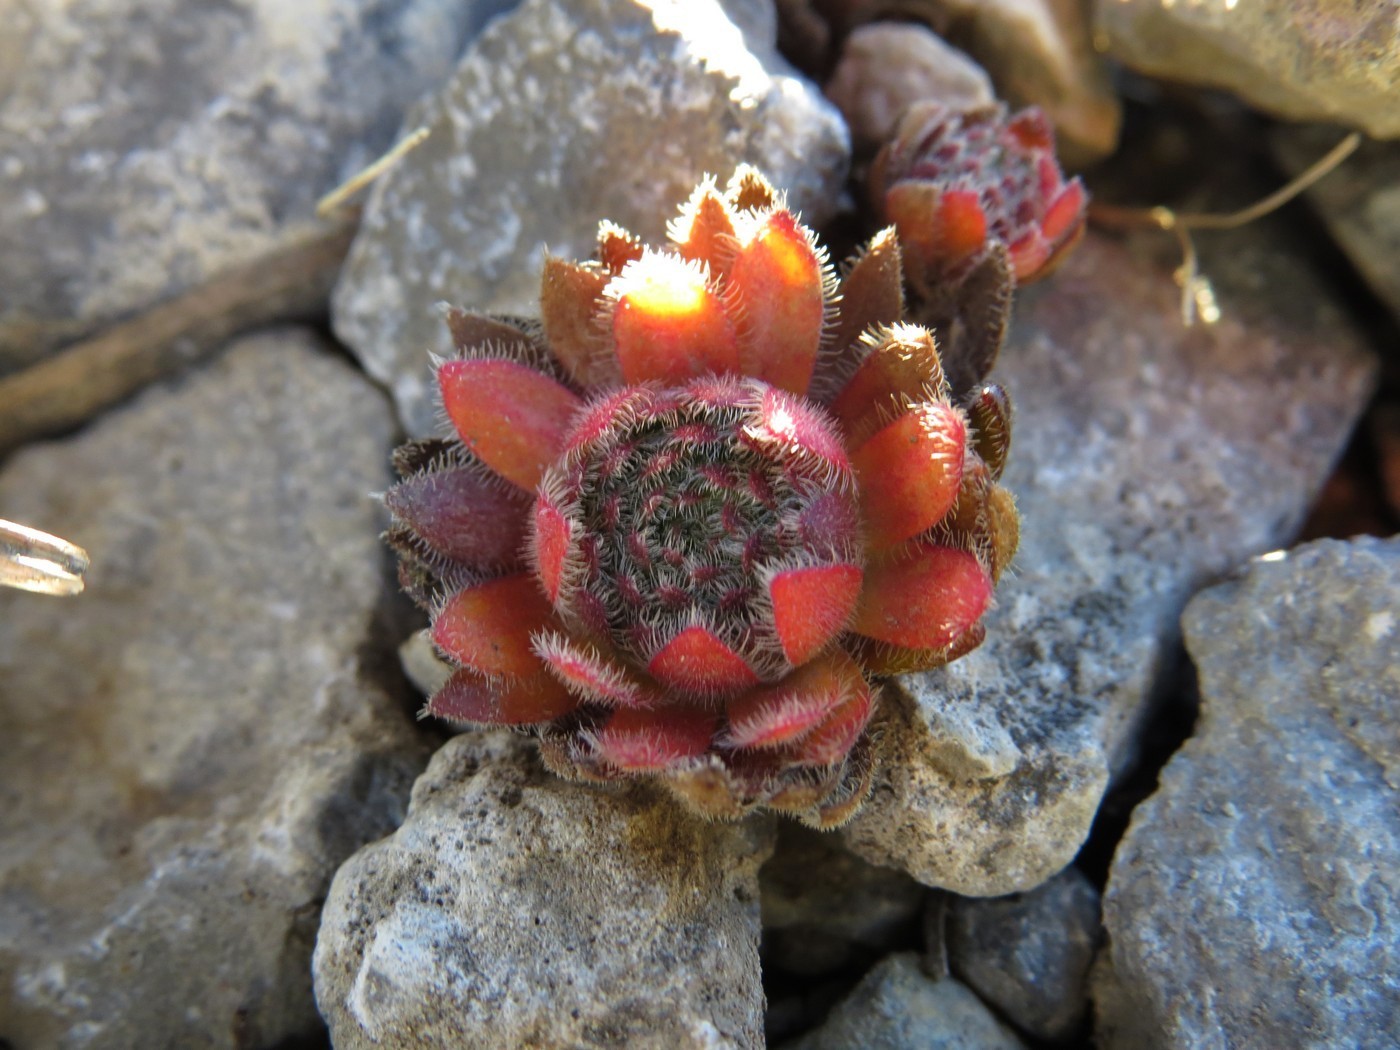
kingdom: Plantae
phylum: Tracheophyta
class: Magnoliopsida
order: Ericales
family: Primulaceae
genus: Androsace
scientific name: Androsace chamaejasme
